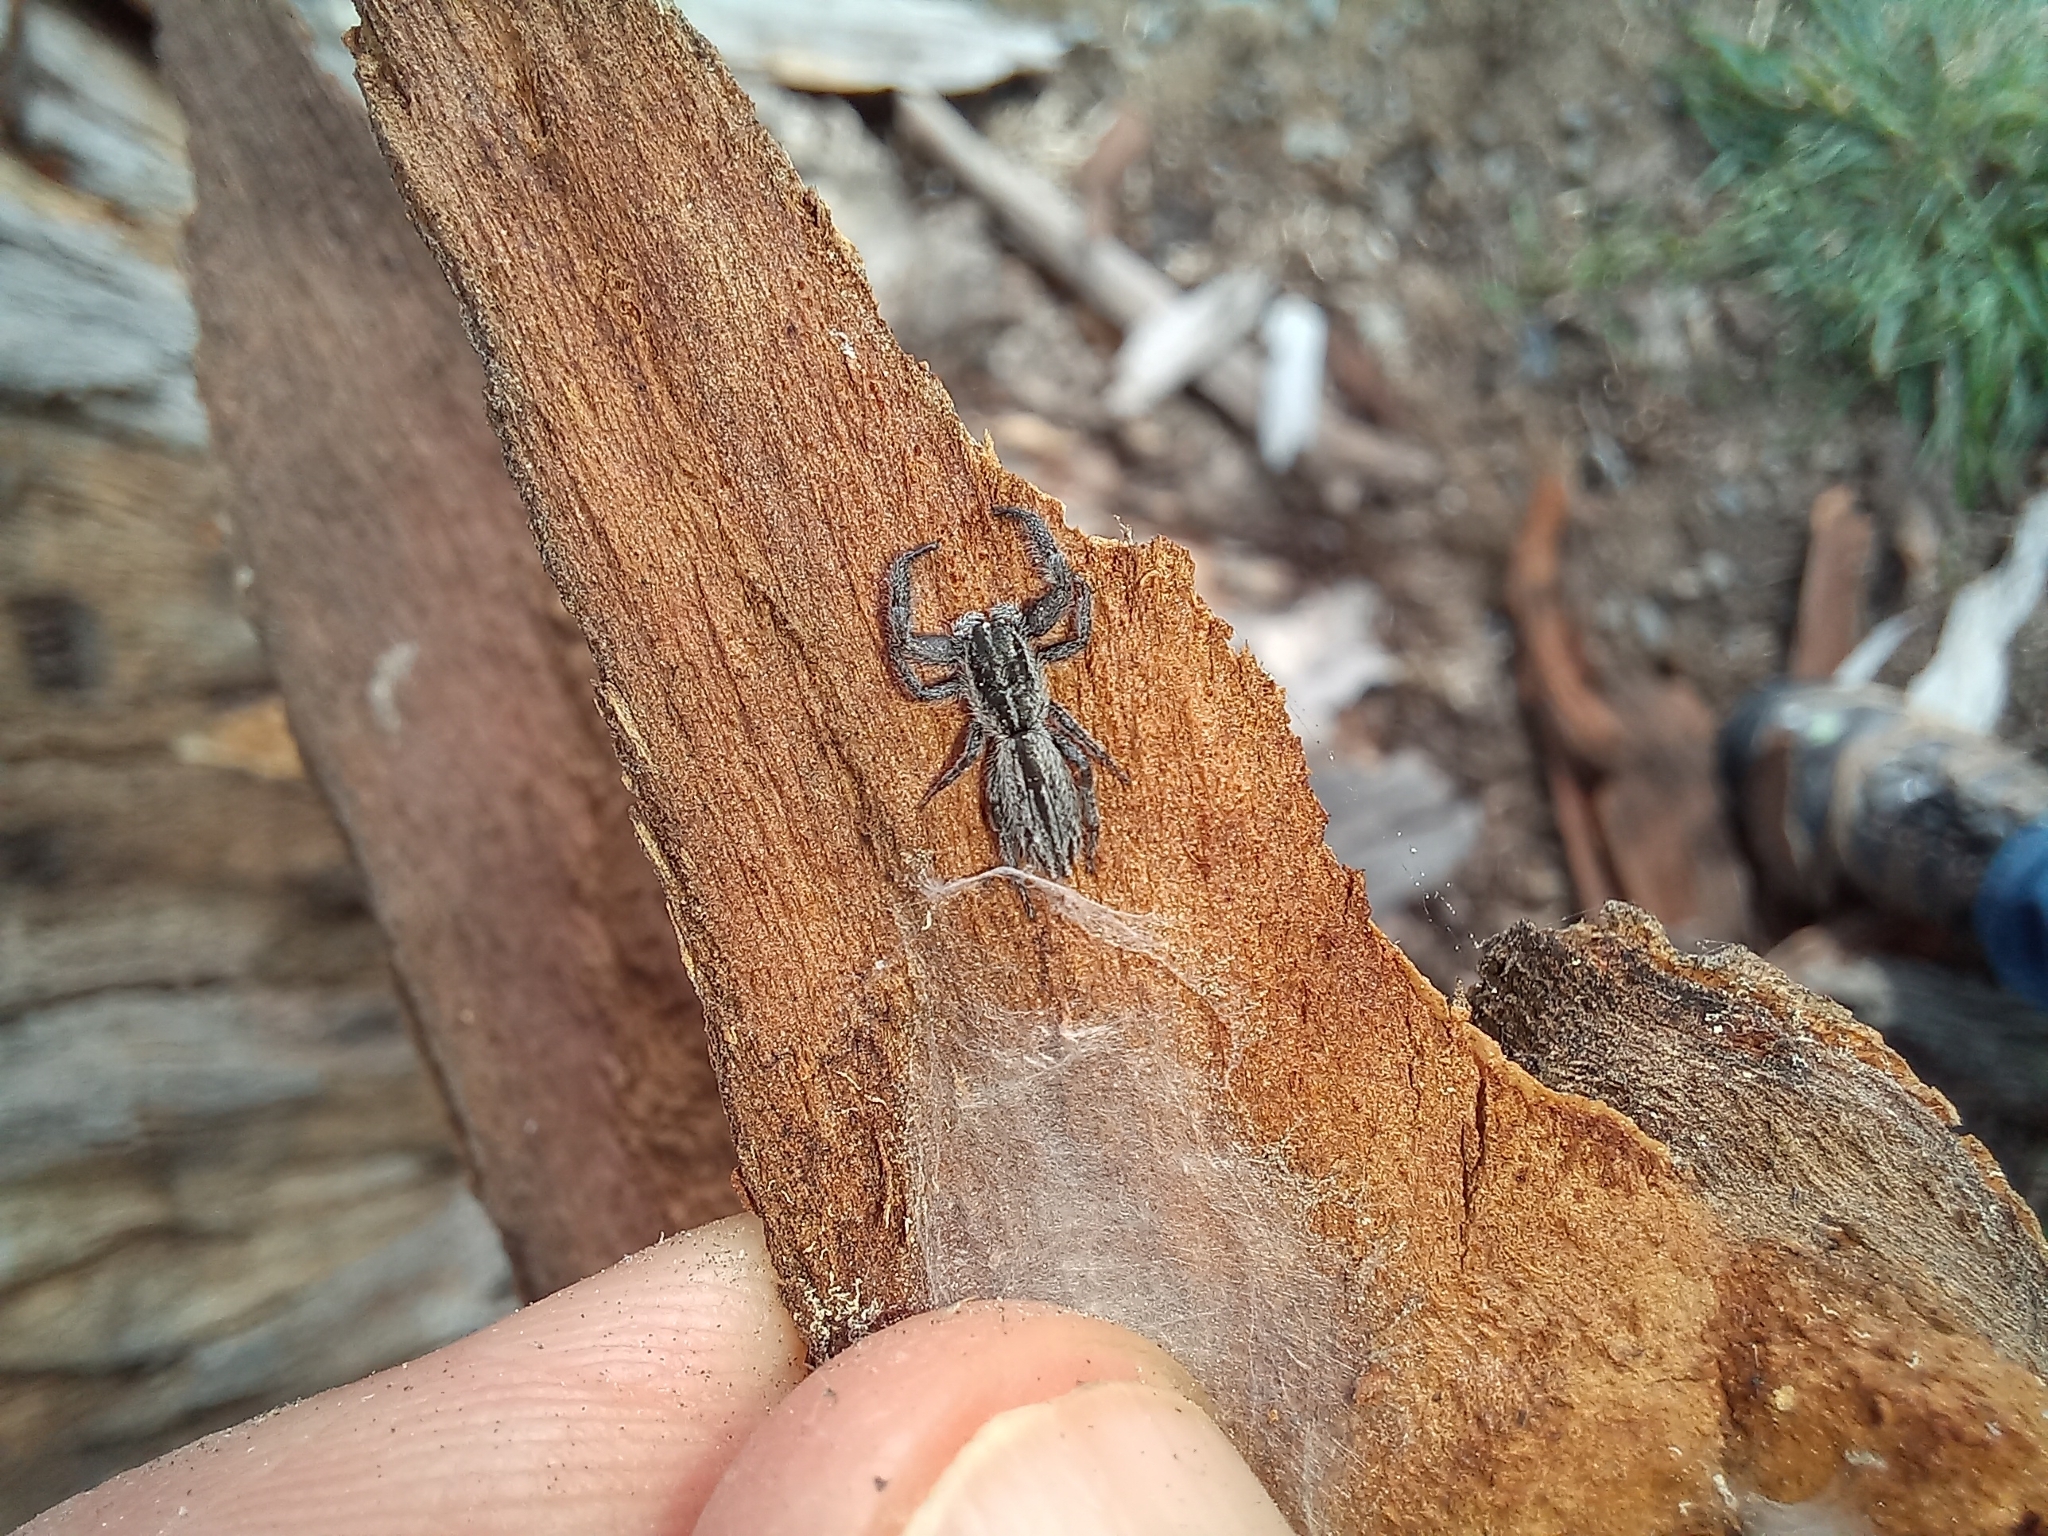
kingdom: Animalia
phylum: Arthropoda
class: Arachnida
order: Araneae
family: Salticidae
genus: Holoplatys
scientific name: Holoplatys apressus
